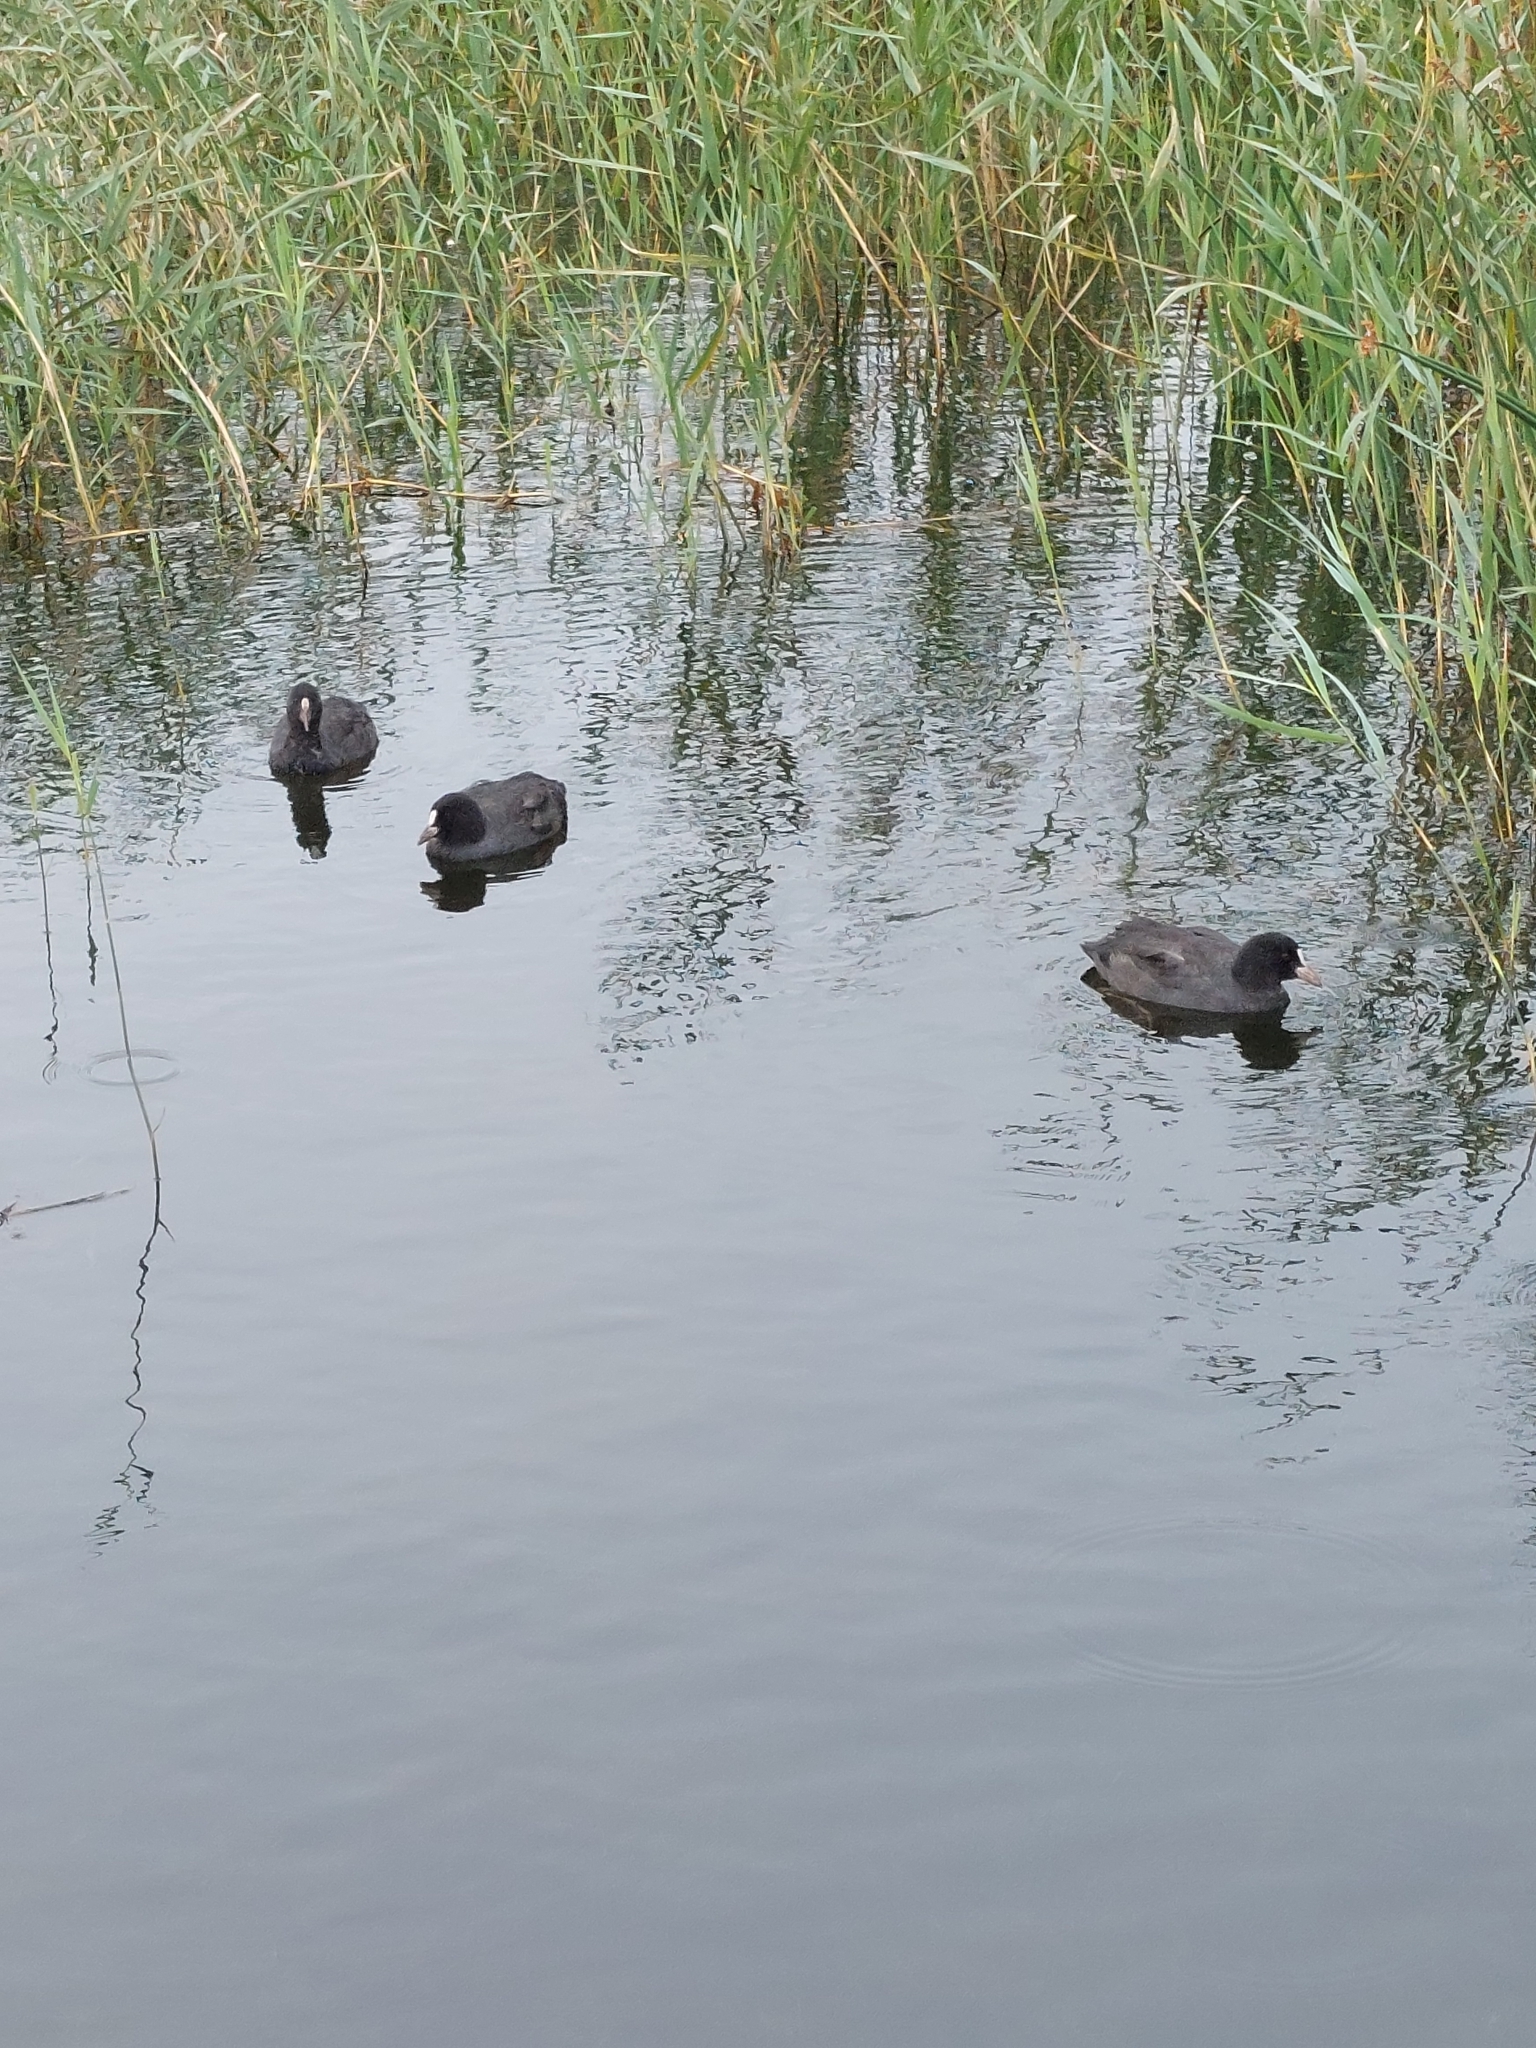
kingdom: Animalia
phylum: Chordata
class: Aves
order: Gruiformes
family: Rallidae
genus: Fulica
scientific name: Fulica atra
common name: Eurasian coot
